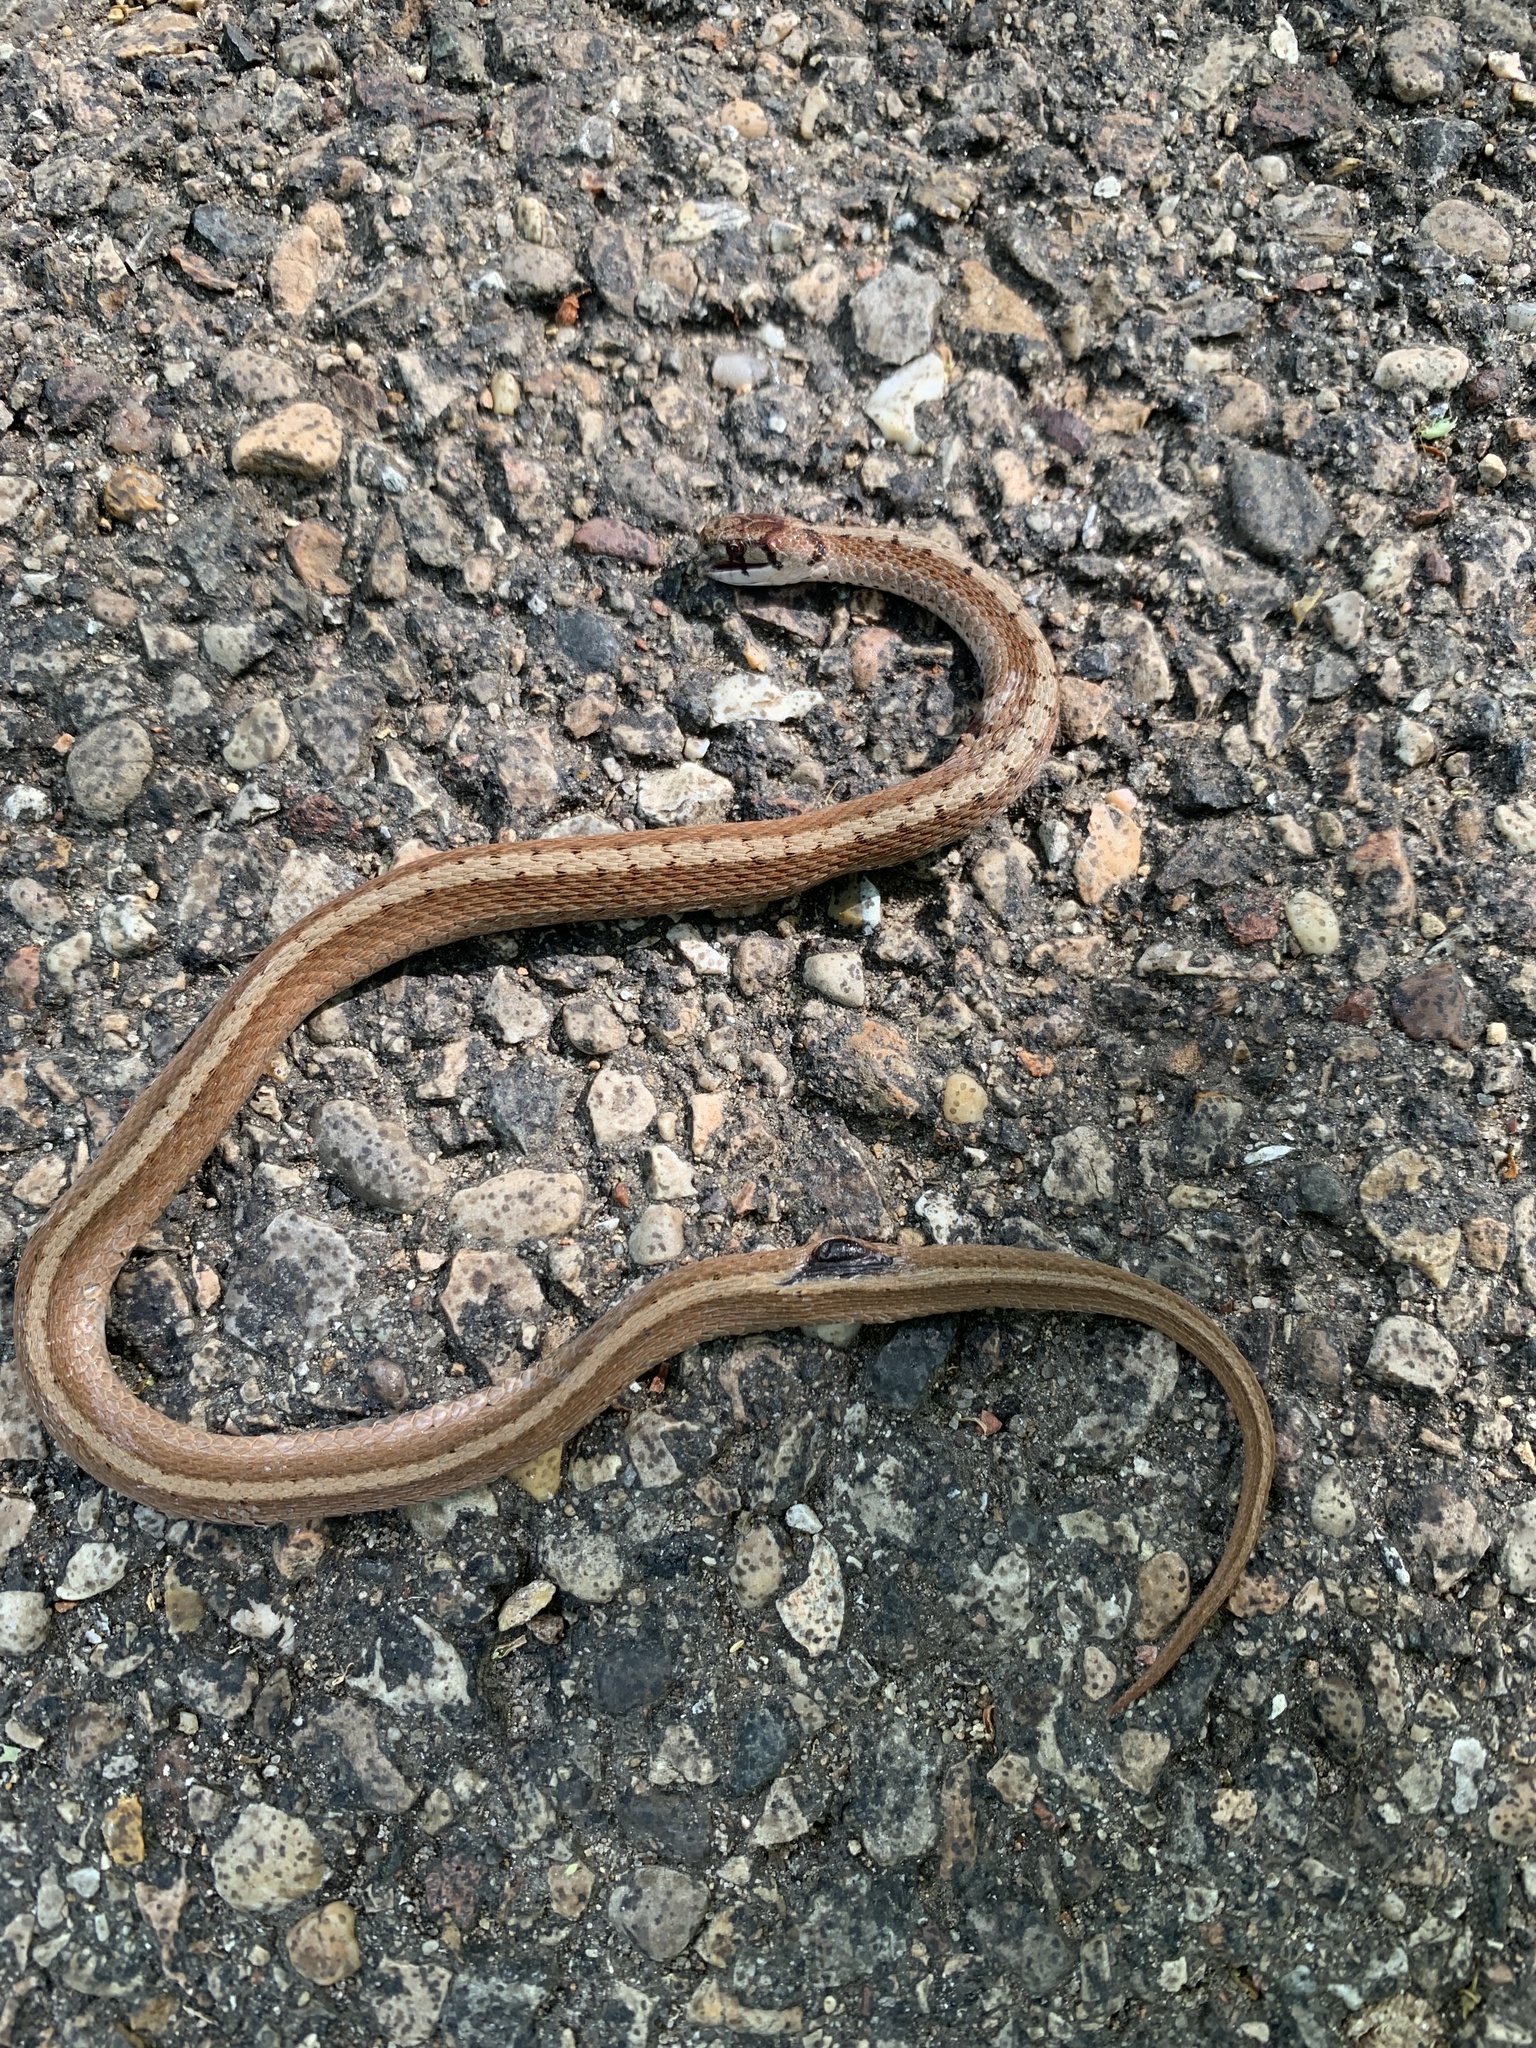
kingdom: Animalia
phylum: Chordata
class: Squamata
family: Colubridae
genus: Storeria
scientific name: Storeria dekayi
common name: (dekay’s) brown snake
